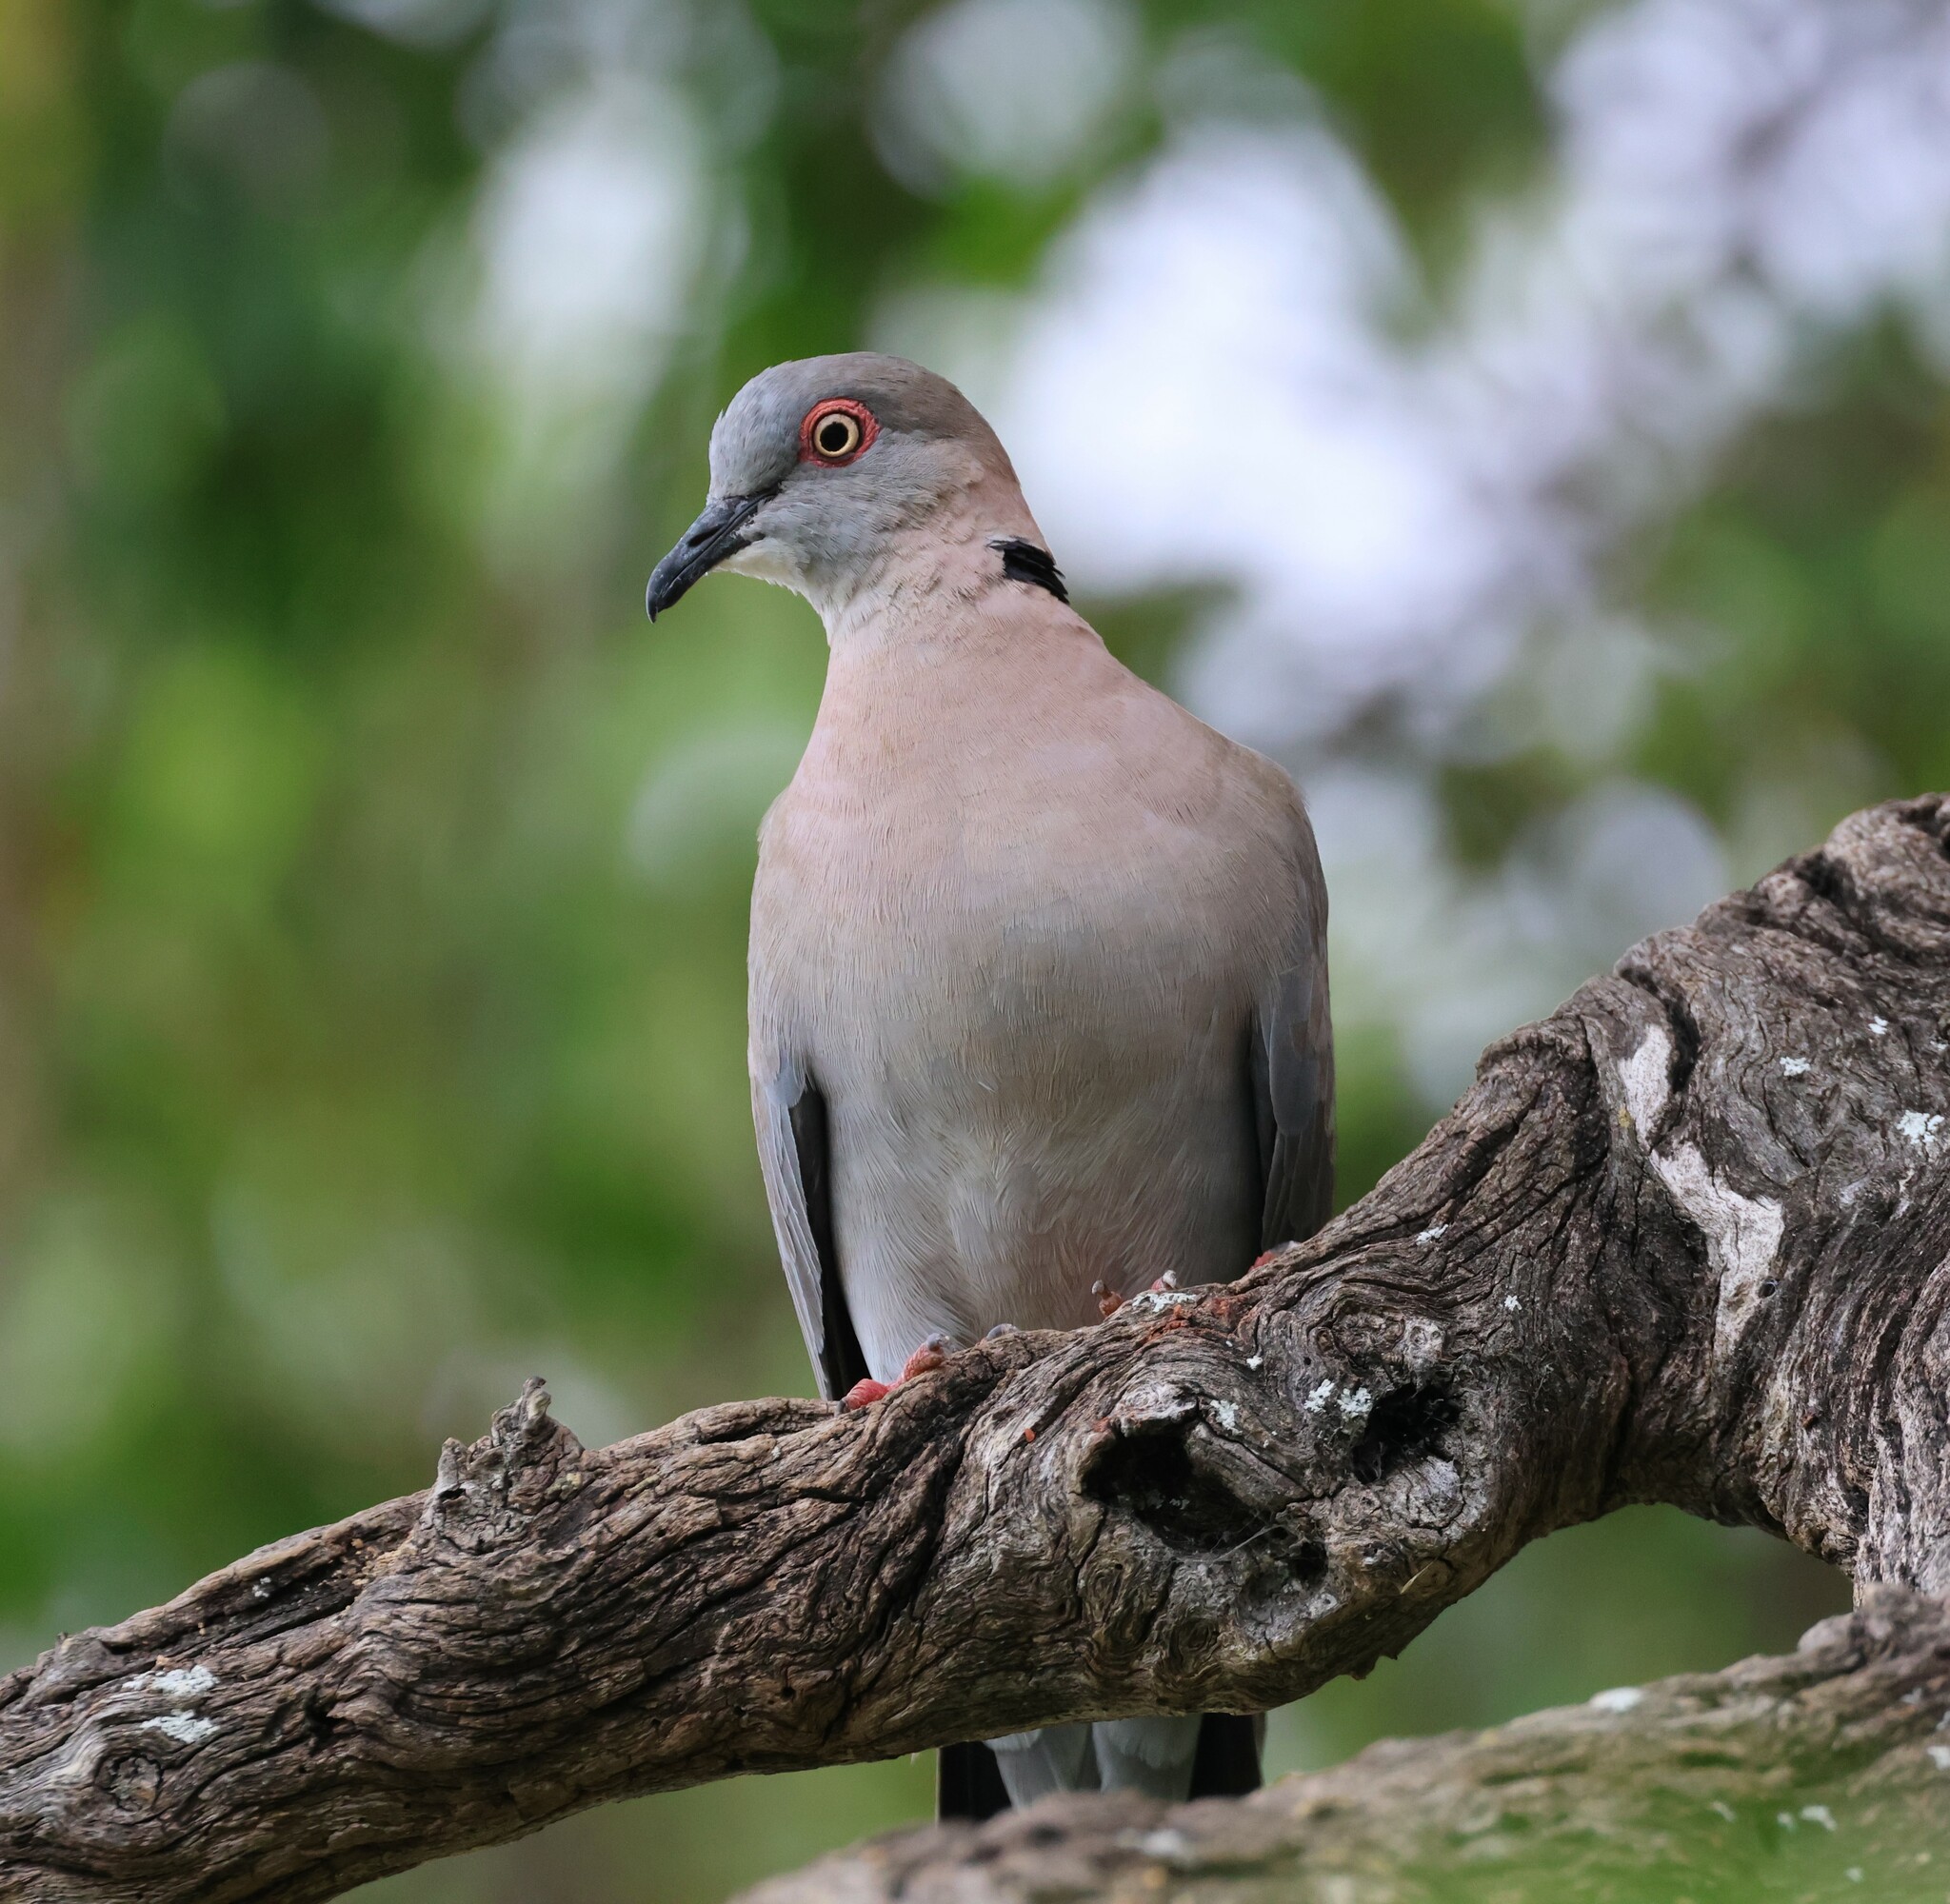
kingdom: Animalia
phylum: Chordata
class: Aves
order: Columbiformes
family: Columbidae
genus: Streptopelia
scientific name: Streptopelia decipiens
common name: Mourning collared dove
